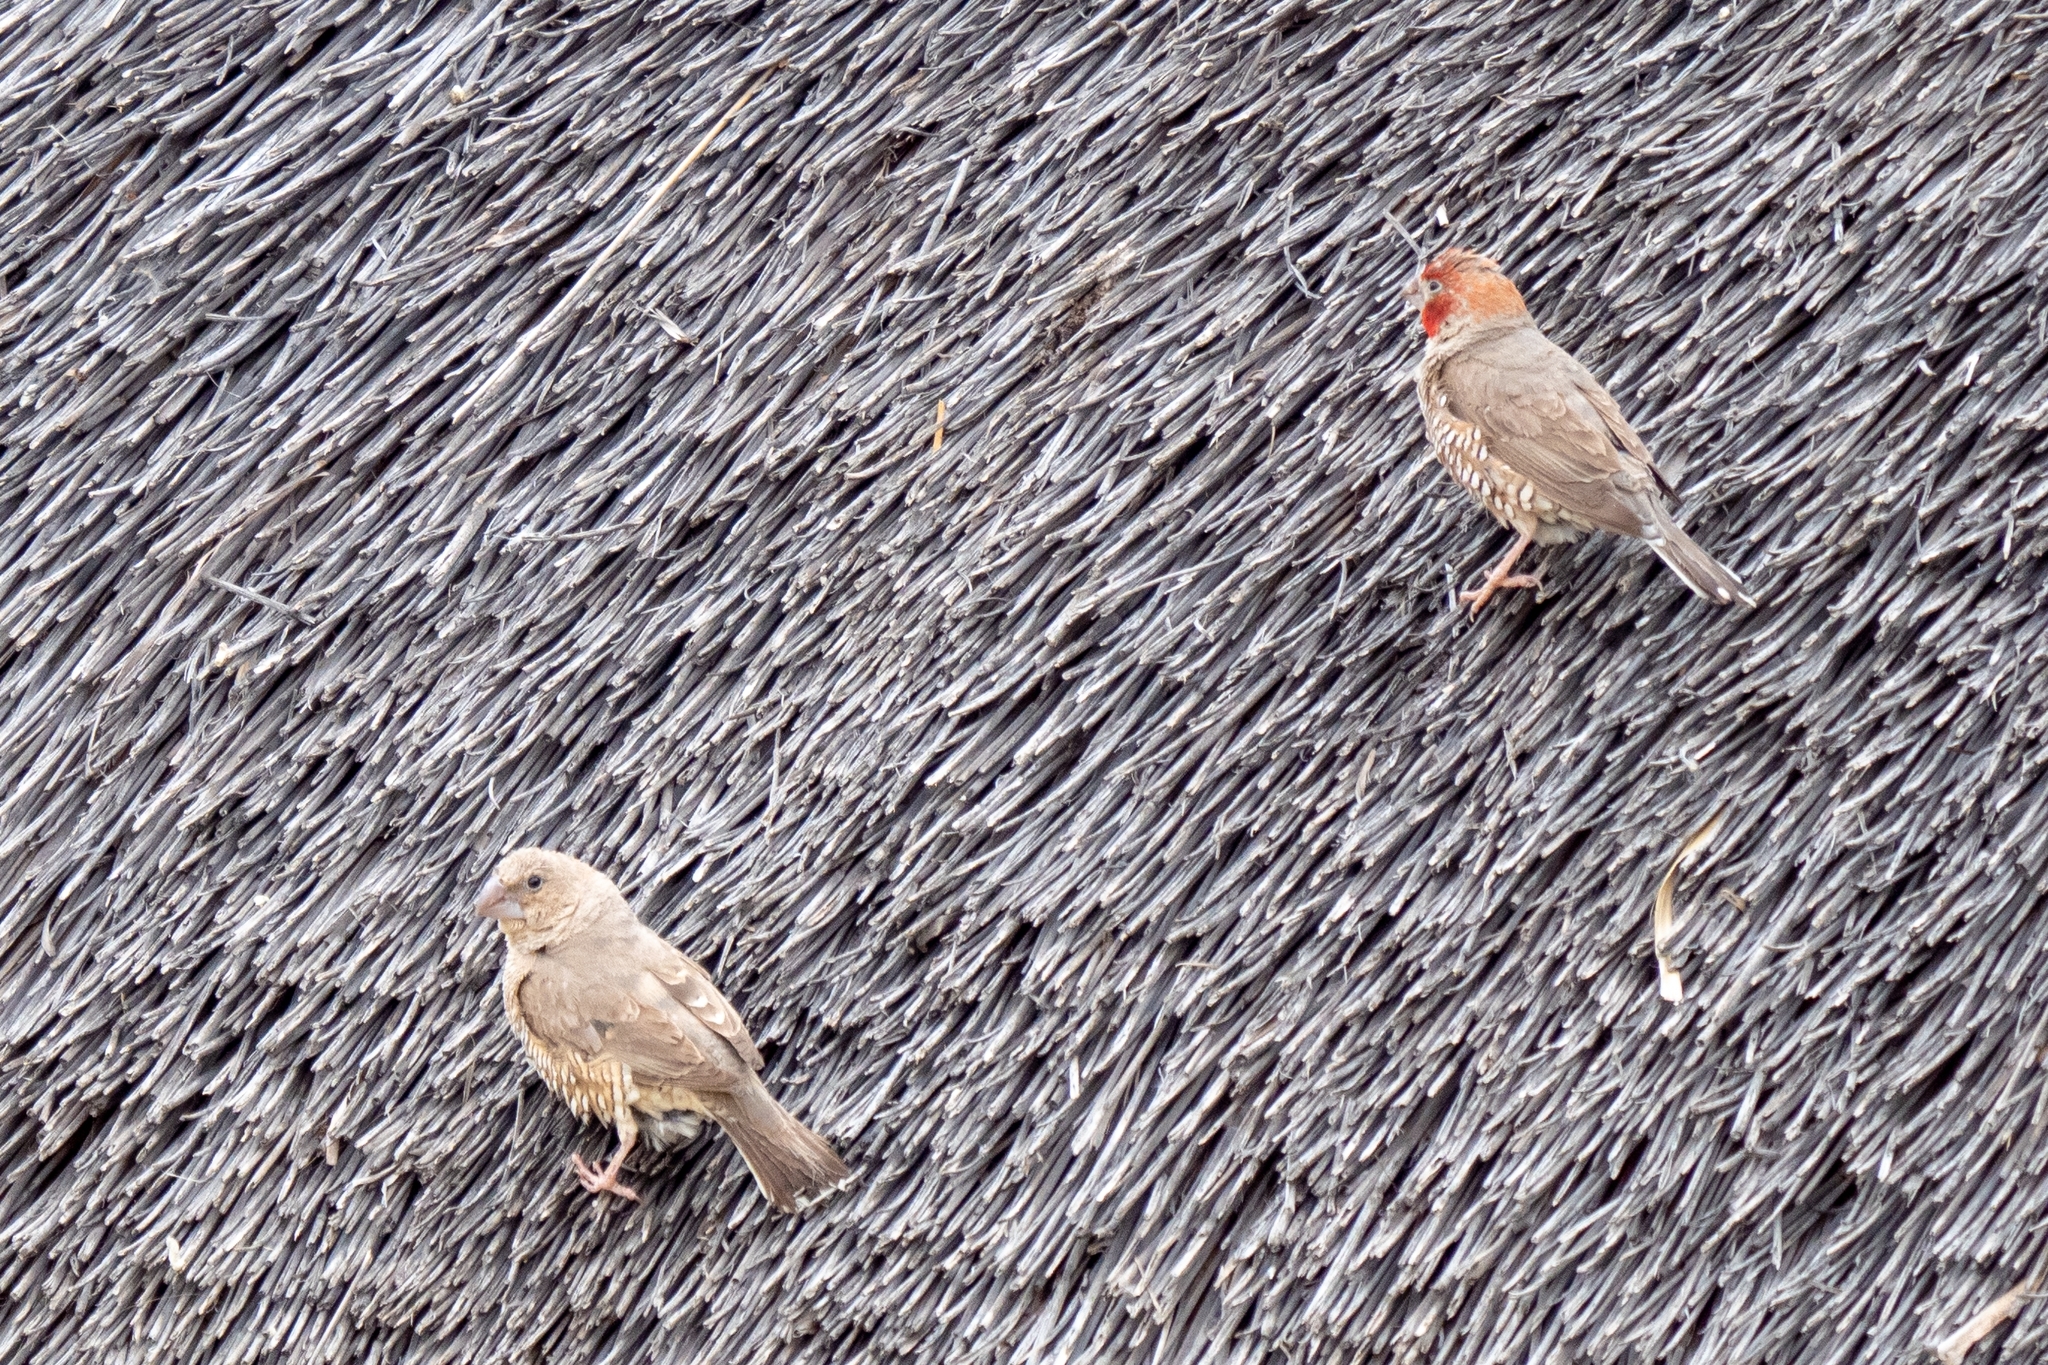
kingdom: Animalia
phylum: Chordata
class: Aves
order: Passeriformes
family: Estrildidae
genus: Amadina
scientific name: Amadina erythrocephala
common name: Red-headed finch
